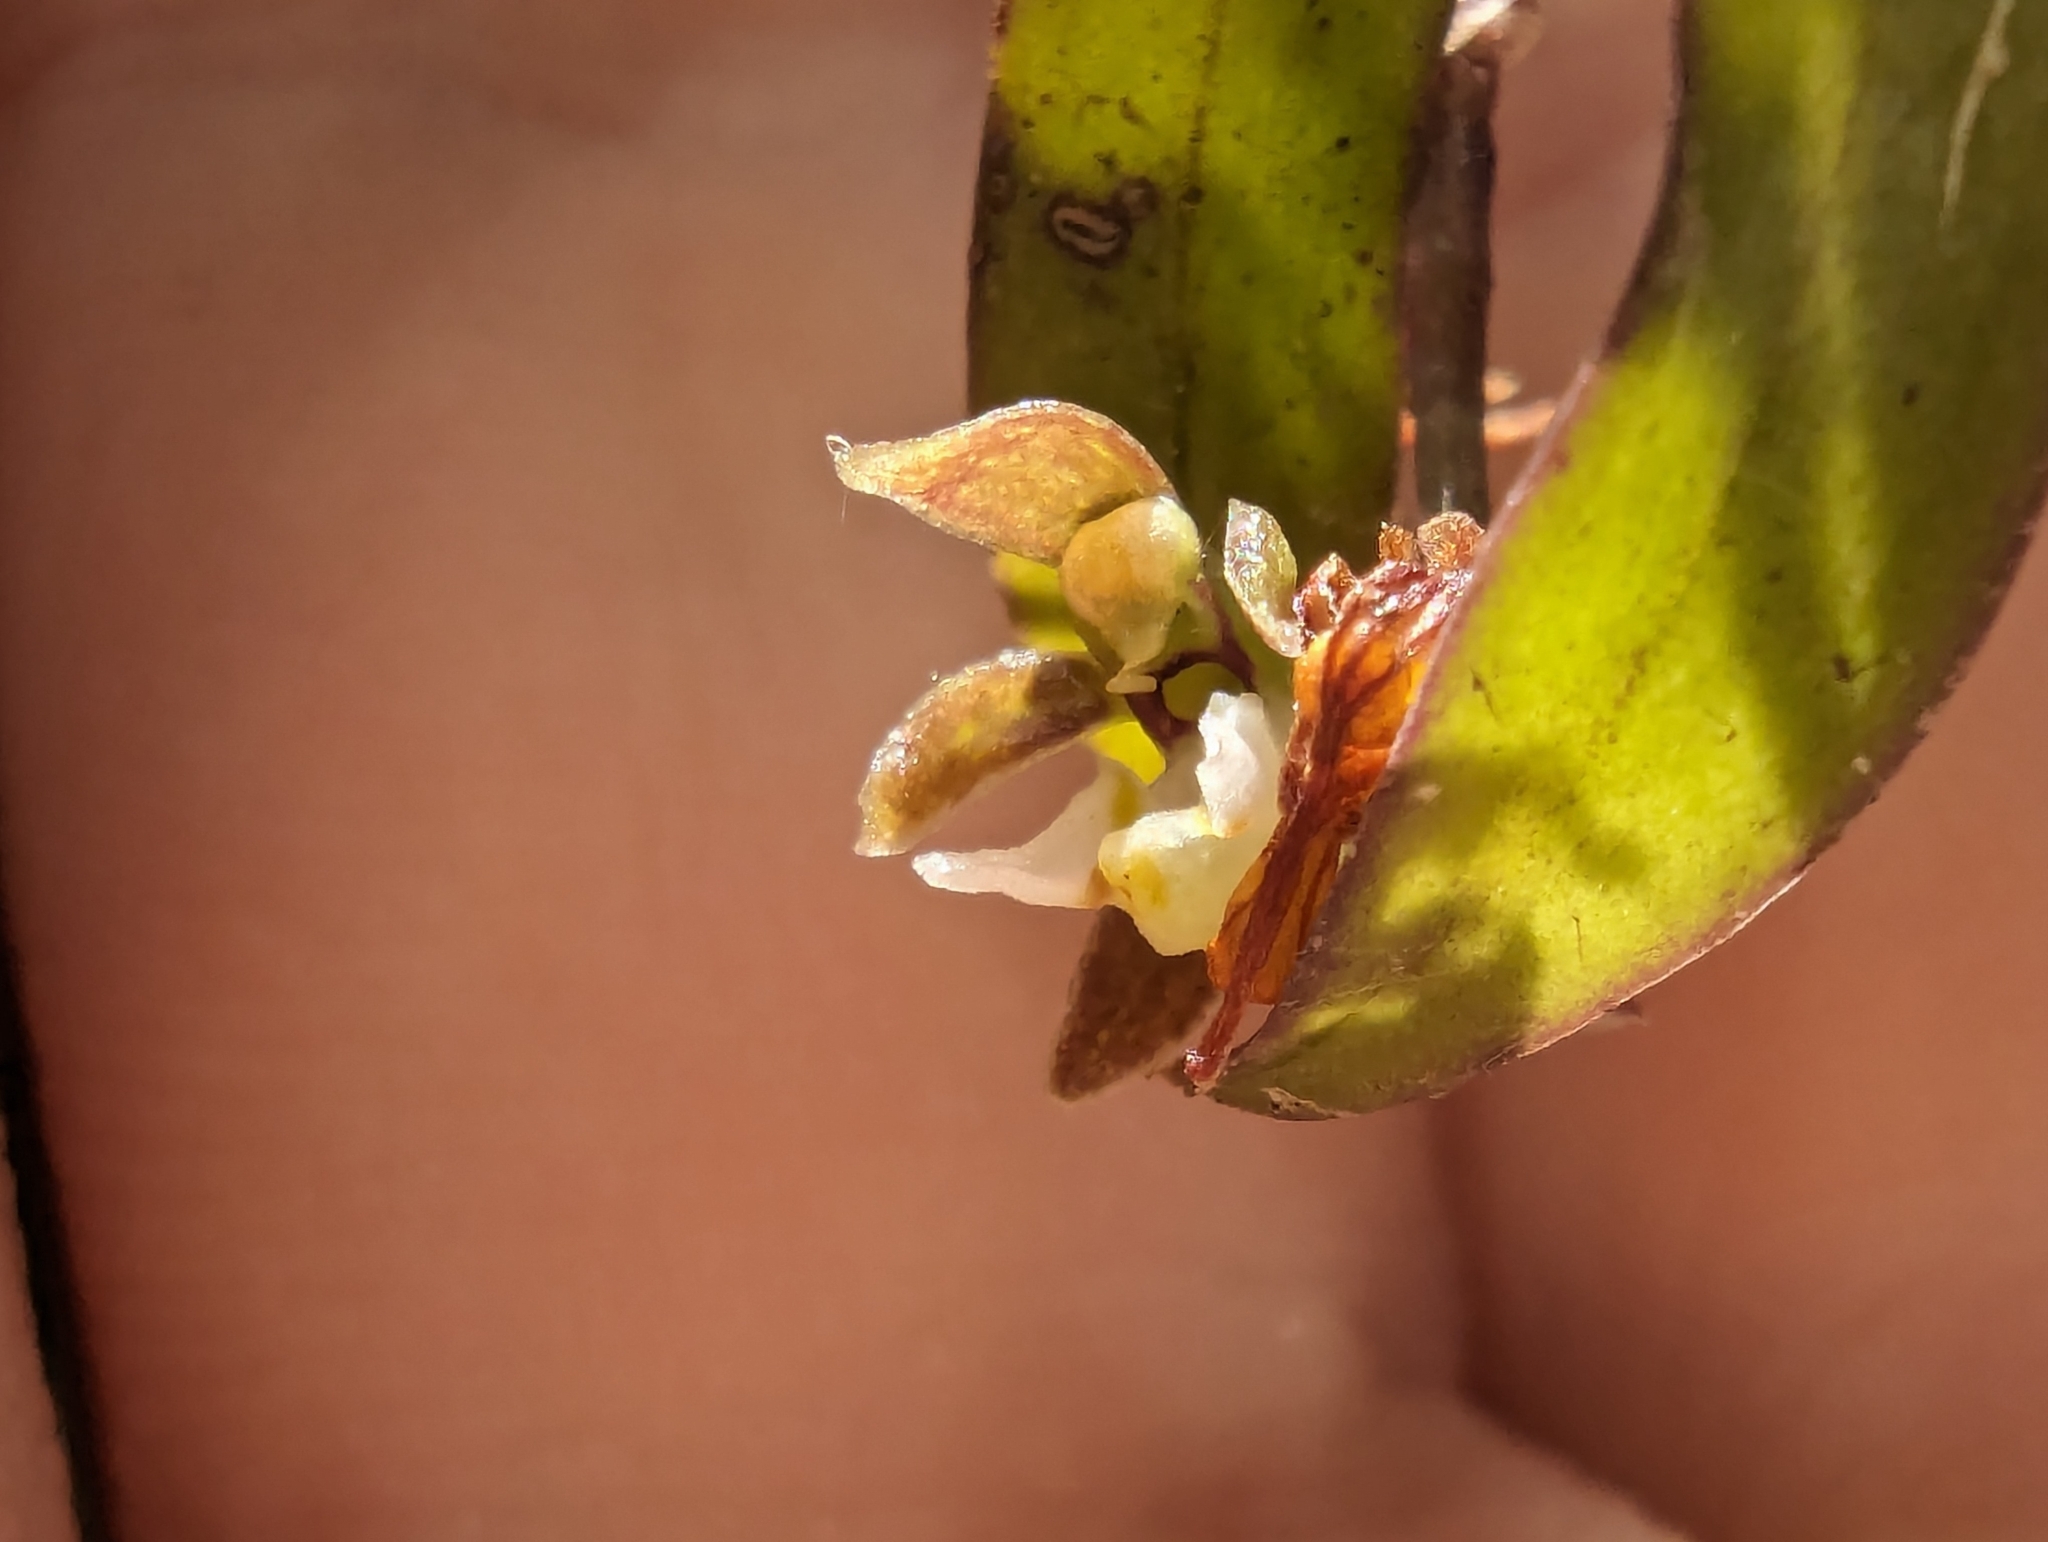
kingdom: Plantae
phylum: Tracheophyta
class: Liliopsida
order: Asparagales
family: Orchidaceae
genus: Plectorrhiza
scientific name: Plectorrhiza tridentata
